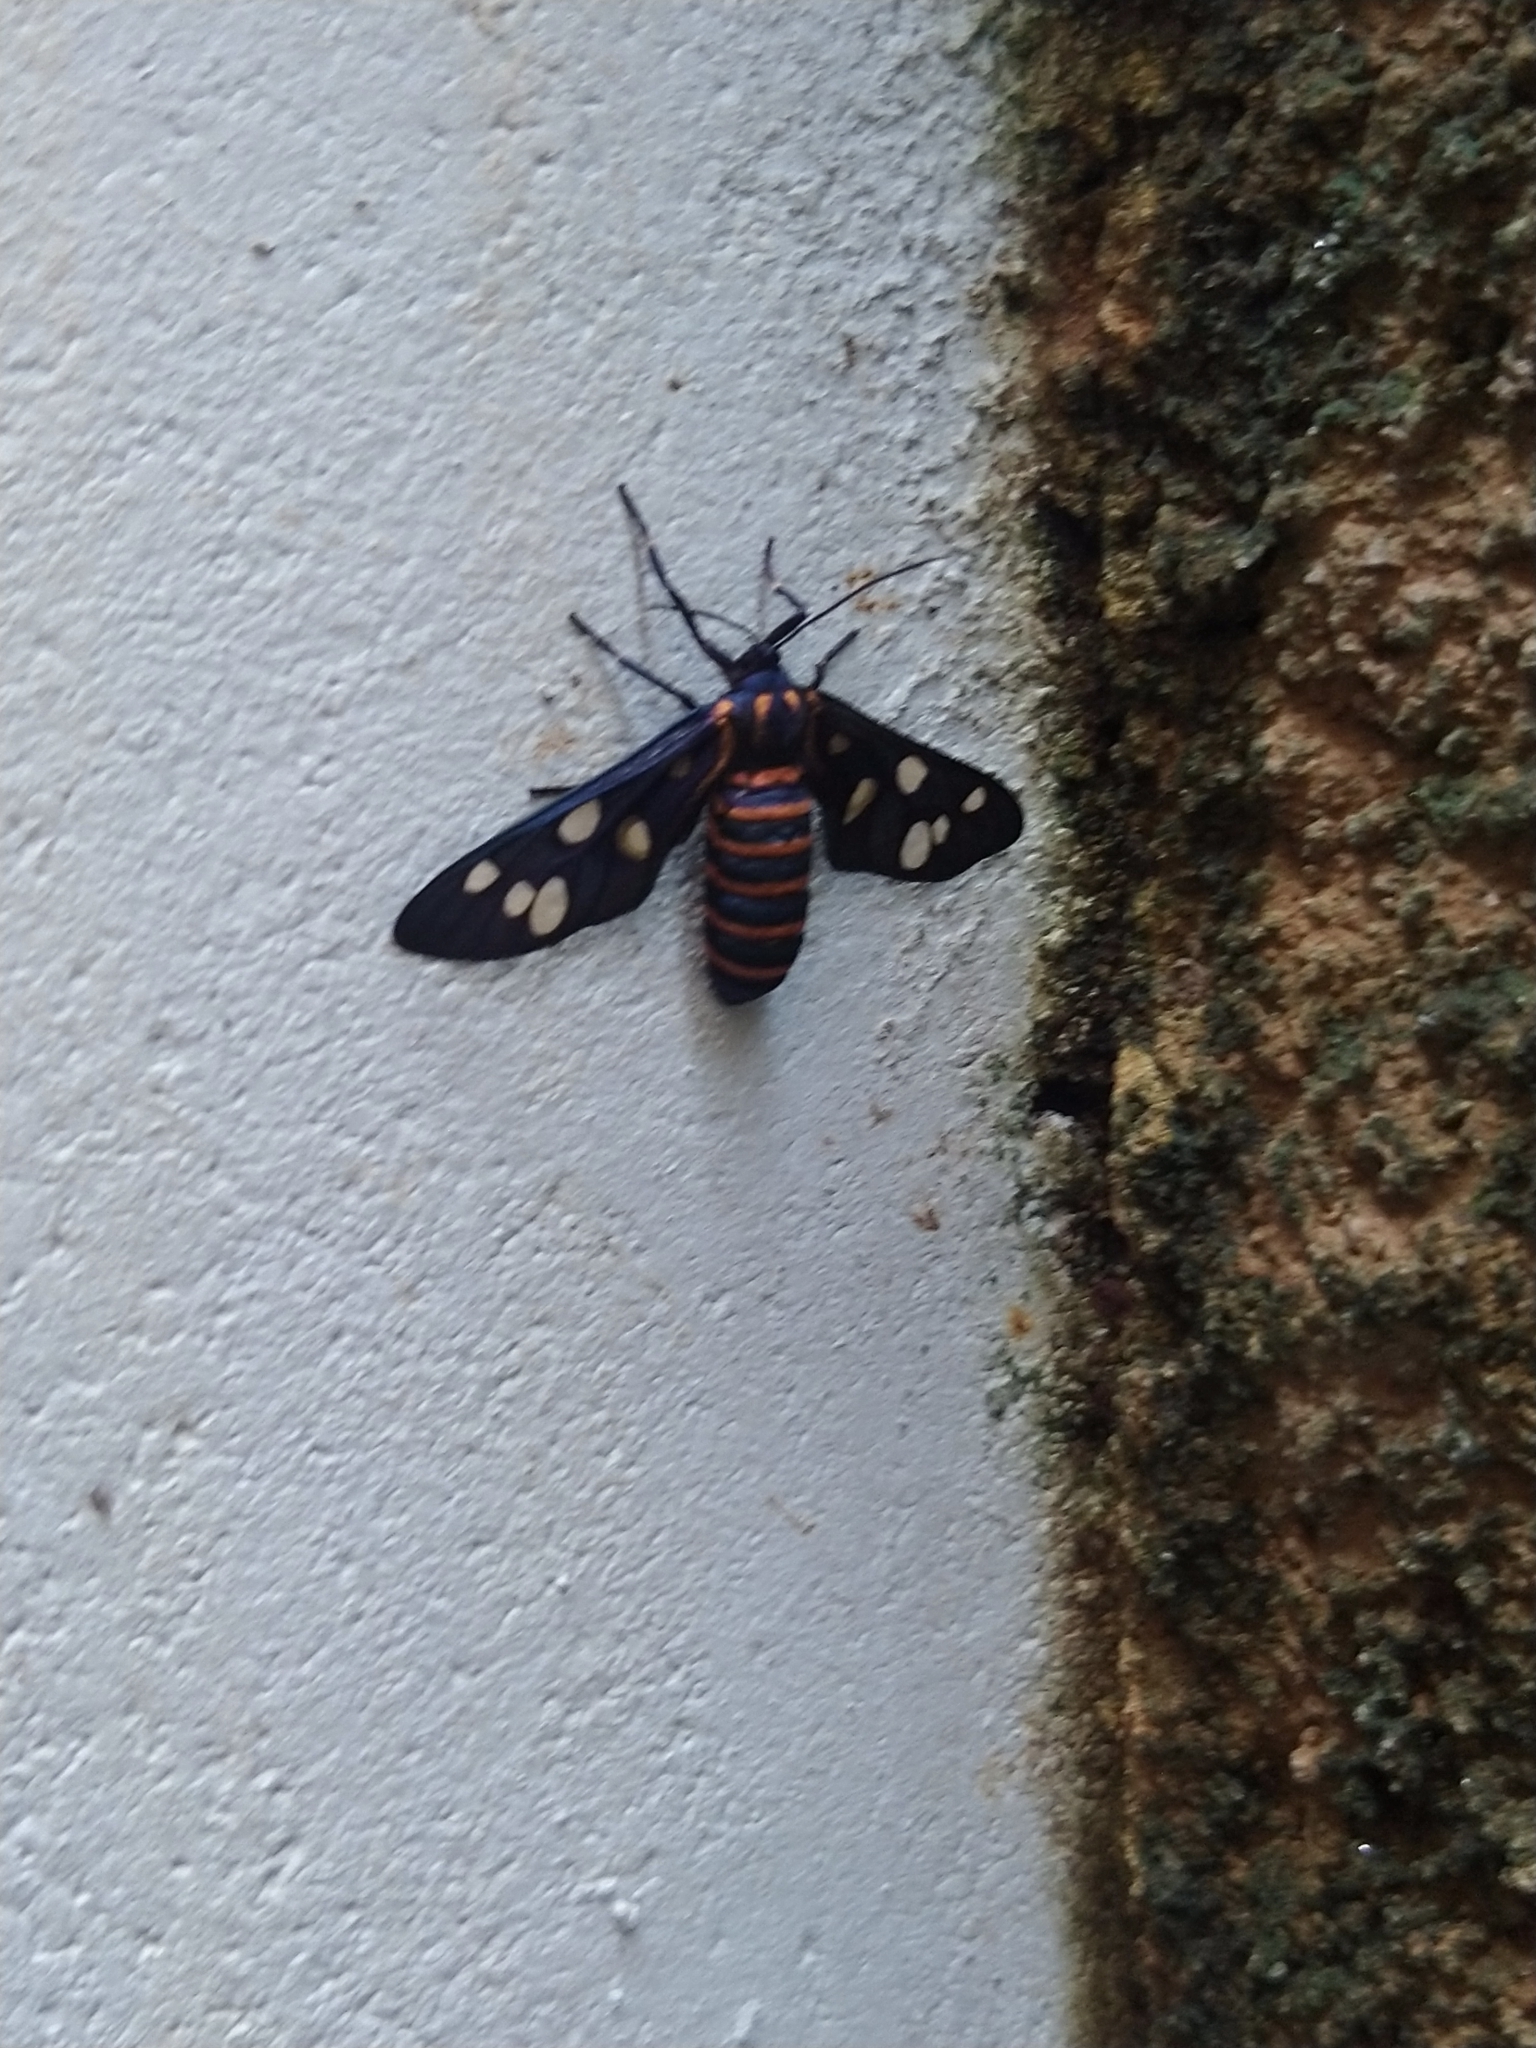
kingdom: Animalia
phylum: Arthropoda
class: Insecta
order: Lepidoptera
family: Erebidae
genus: Amata
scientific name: Amata passalis
